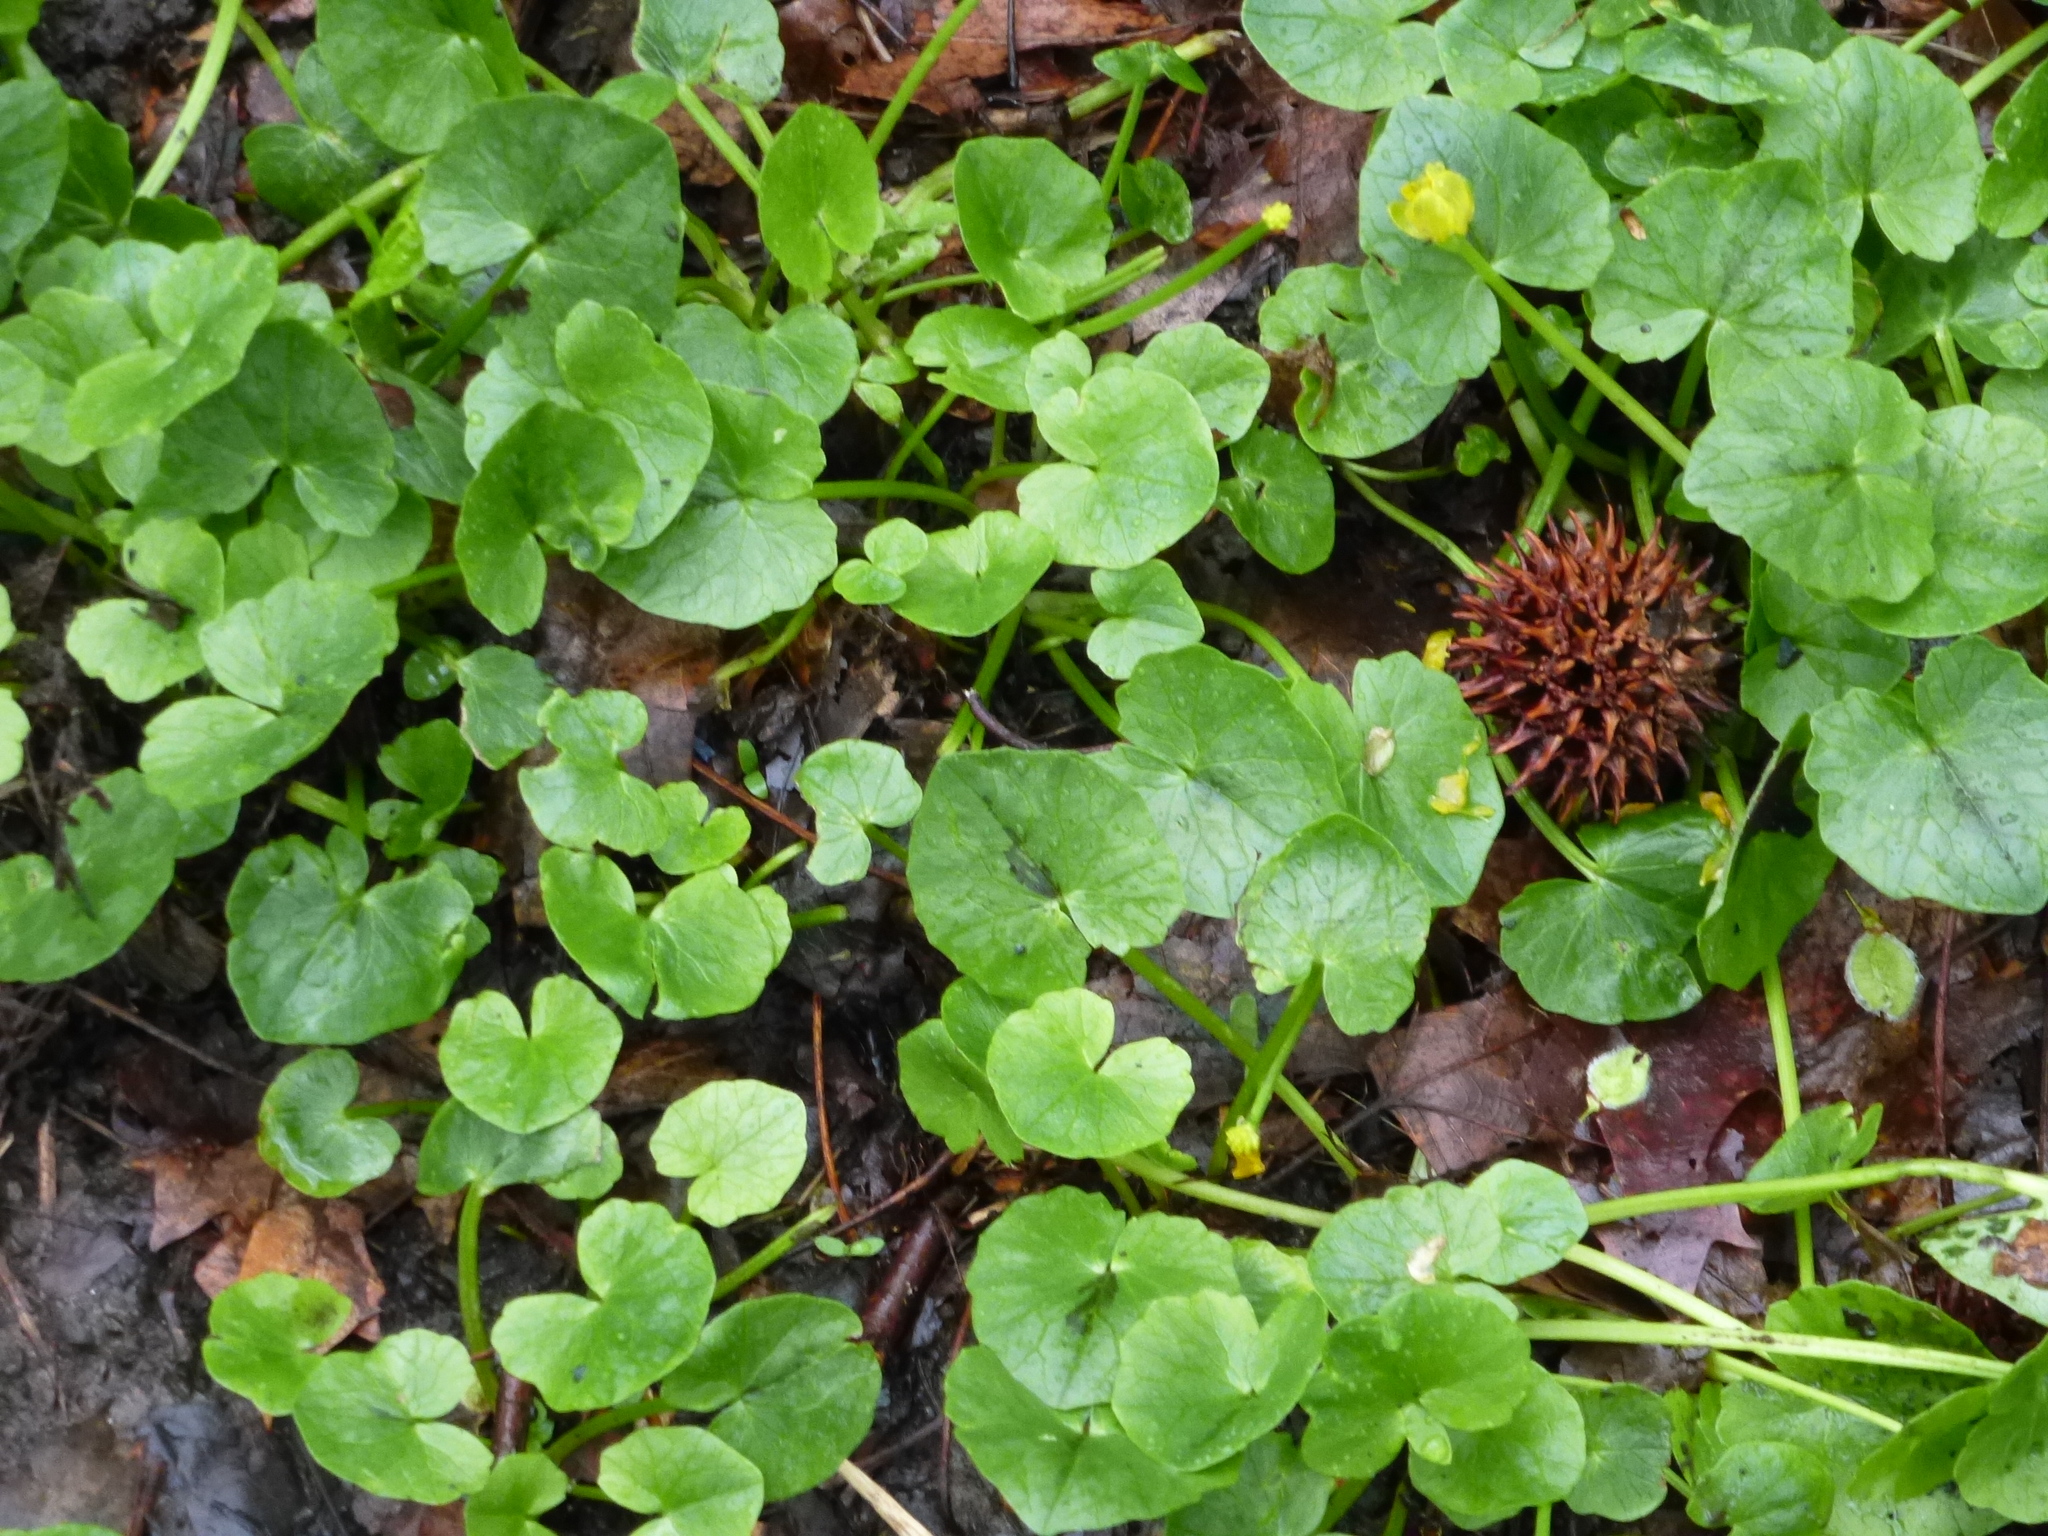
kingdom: Plantae
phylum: Tracheophyta
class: Magnoliopsida
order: Ranunculales
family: Ranunculaceae
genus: Ficaria
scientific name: Ficaria verna
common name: Lesser celandine
